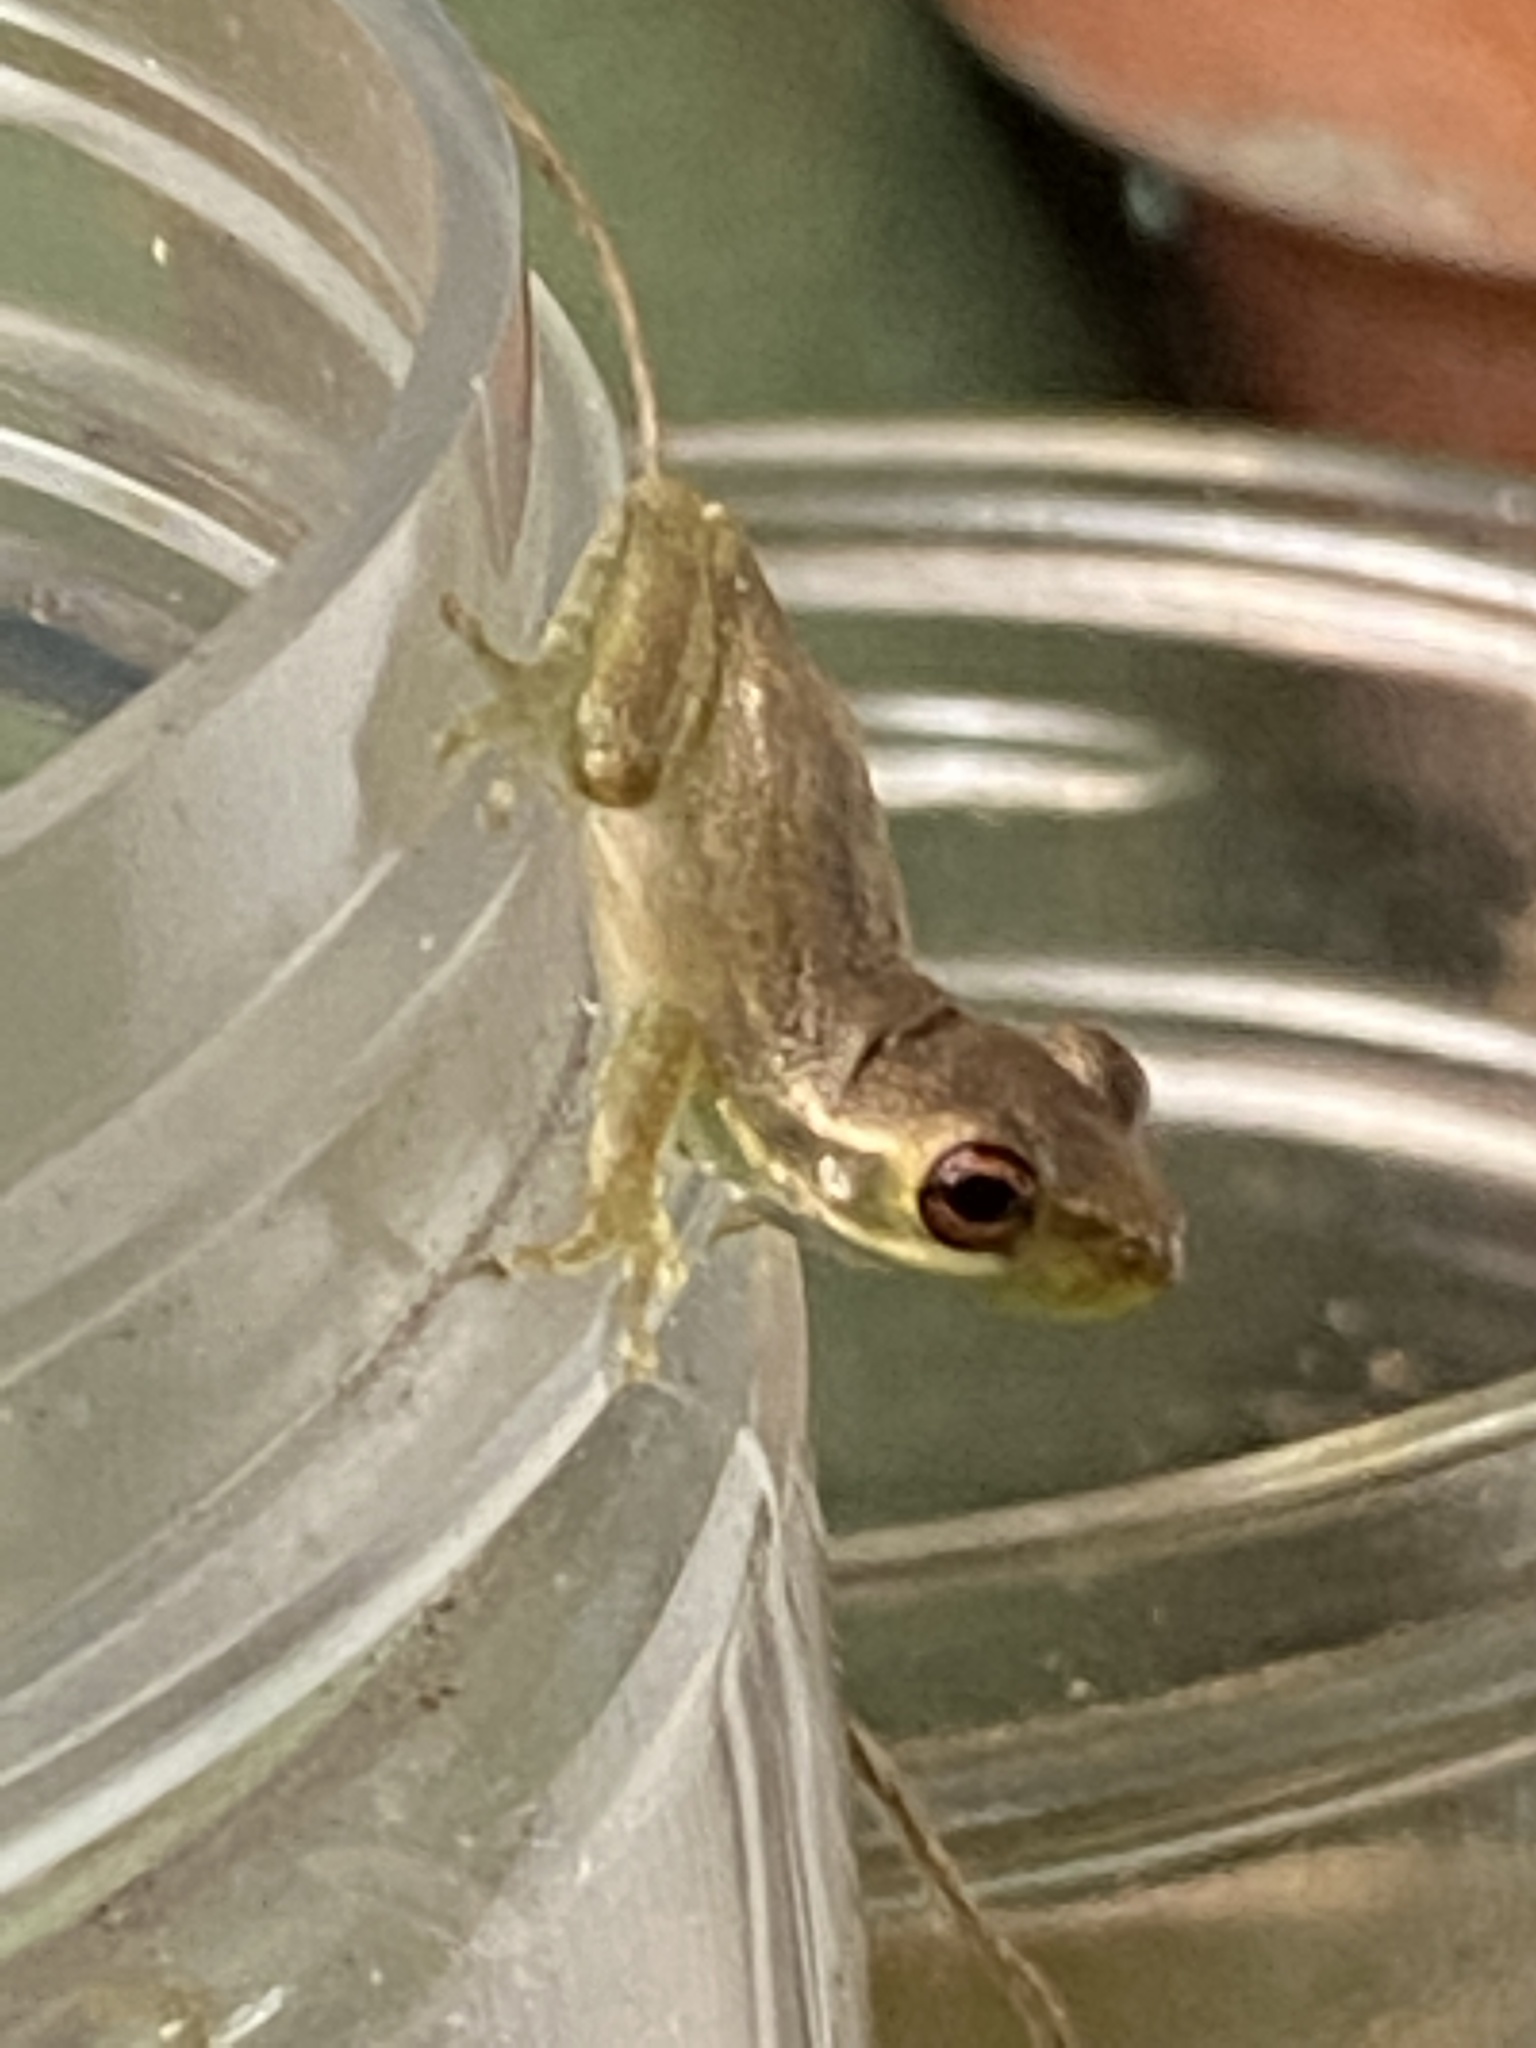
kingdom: Animalia
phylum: Chordata
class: Amphibia
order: Anura
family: Hylidae
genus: Osteopilus
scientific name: Osteopilus septentrionalis
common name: Cuban treefrog
